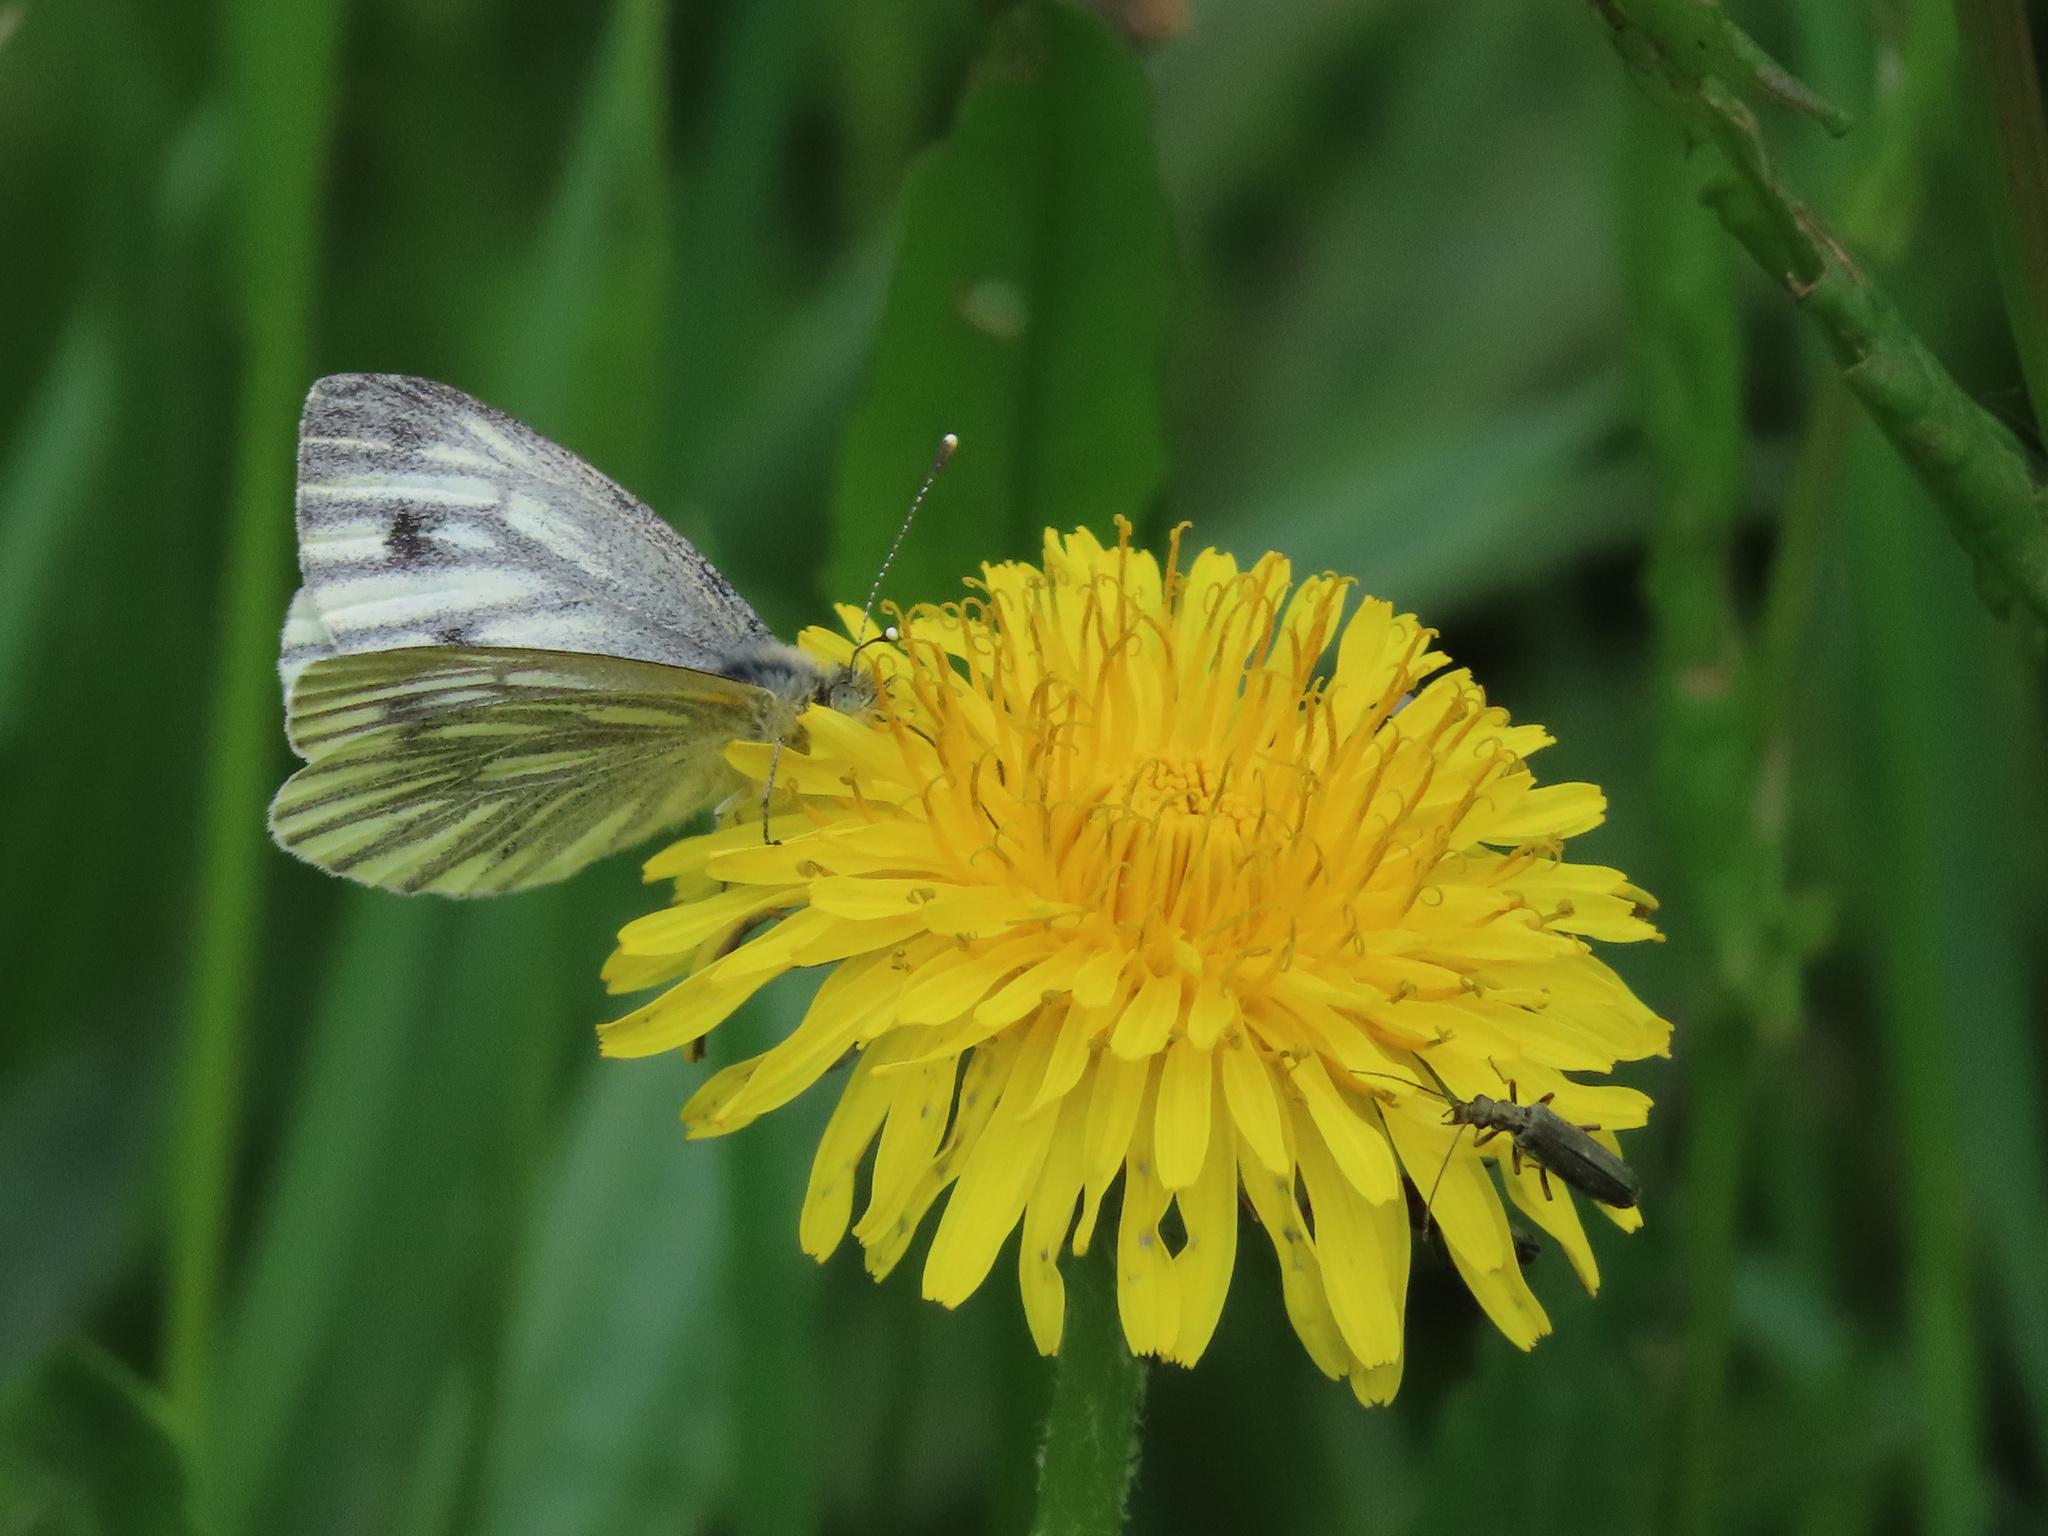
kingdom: Animalia
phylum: Arthropoda
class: Insecta
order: Lepidoptera
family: Pieridae
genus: Pieris
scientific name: Pieris napi
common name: Green-veined white
